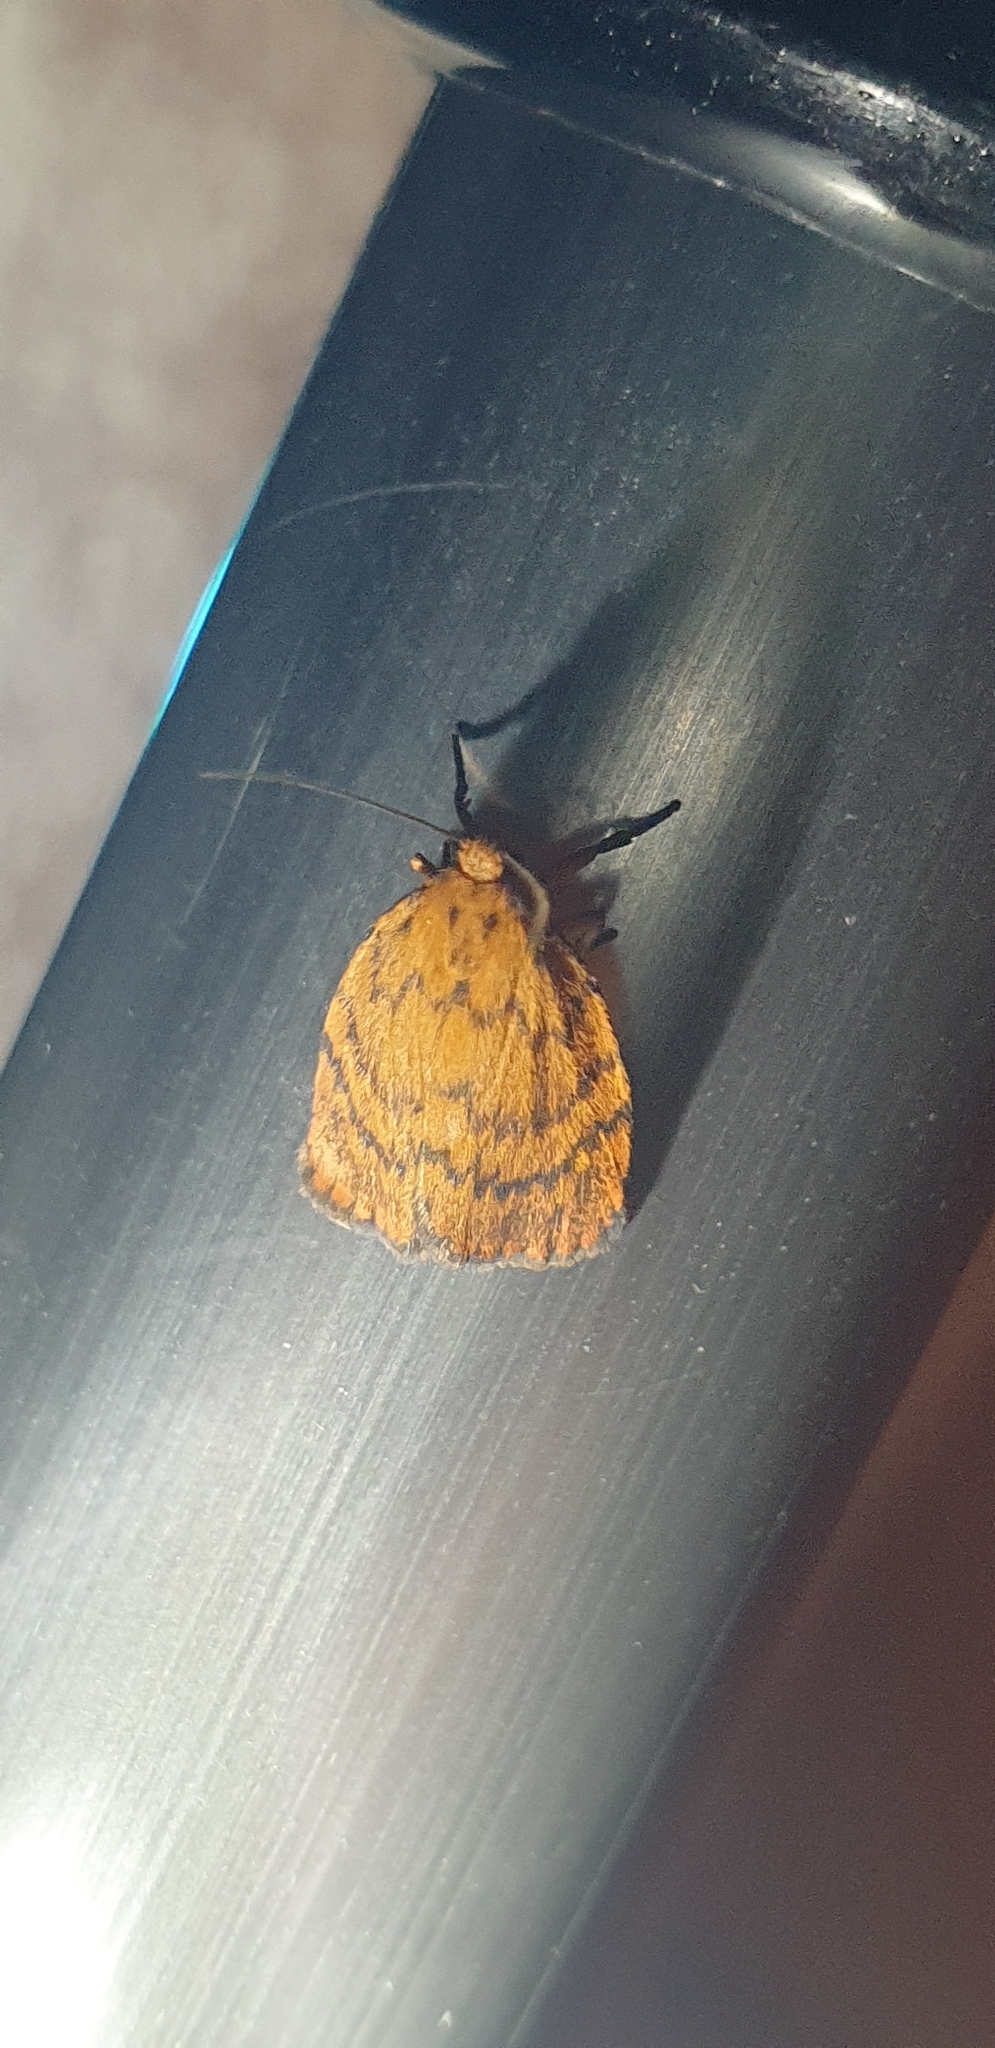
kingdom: Animalia
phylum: Arthropoda
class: Insecta
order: Lepidoptera
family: Erebidae
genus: Cyme
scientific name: Cyme structa
